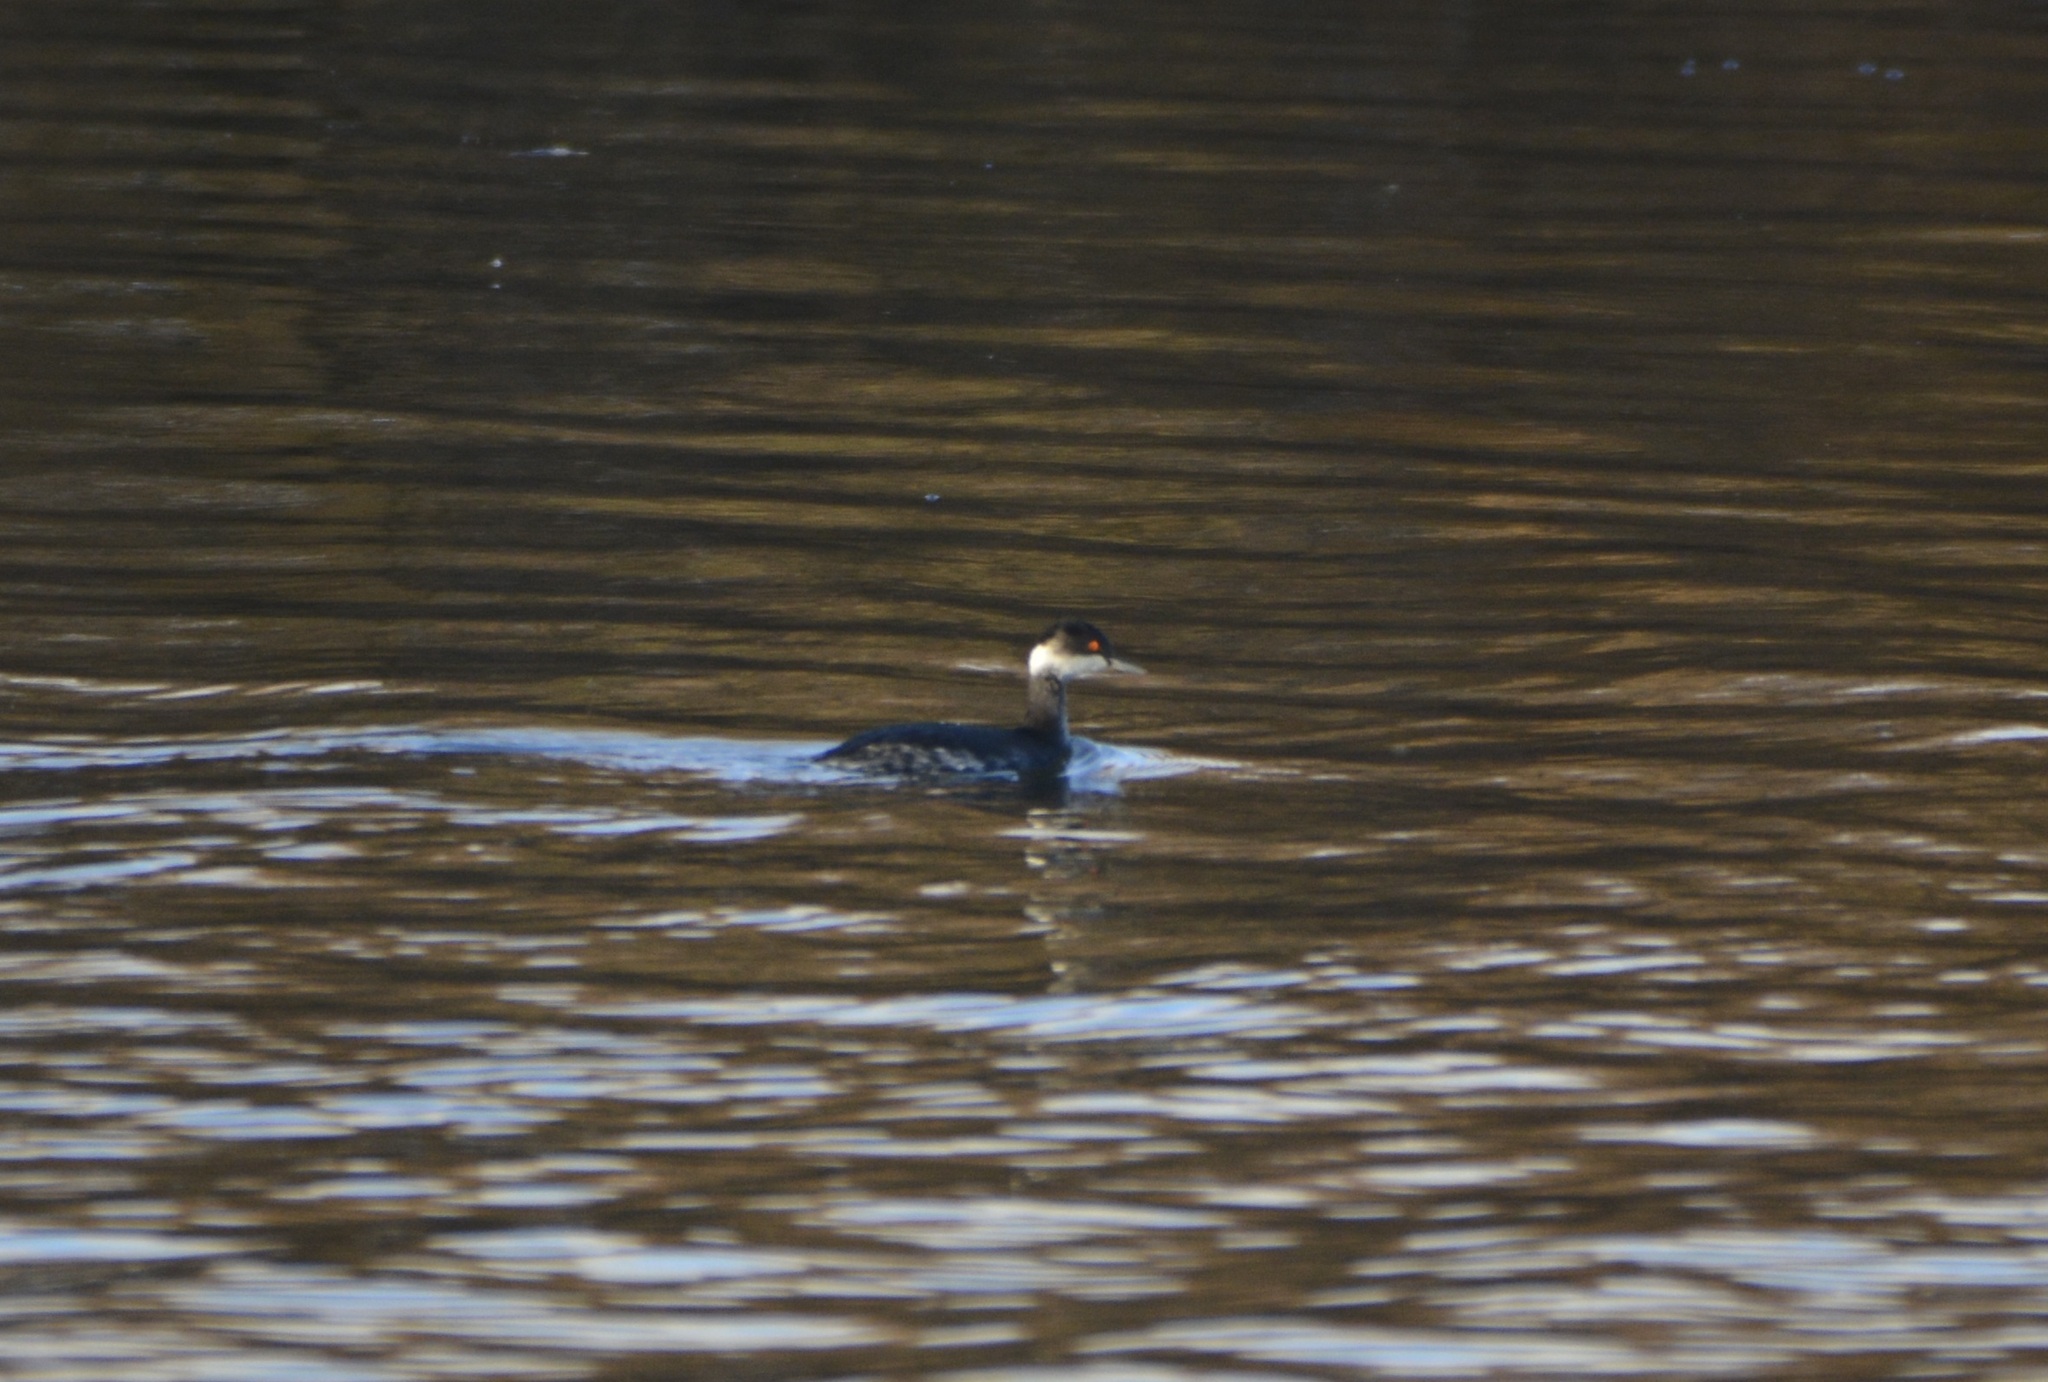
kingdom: Animalia
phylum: Chordata
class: Aves
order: Podicipediformes
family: Podicipedidae
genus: Podiceps
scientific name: Podiceps nigricollis
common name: Black-necked grebe
